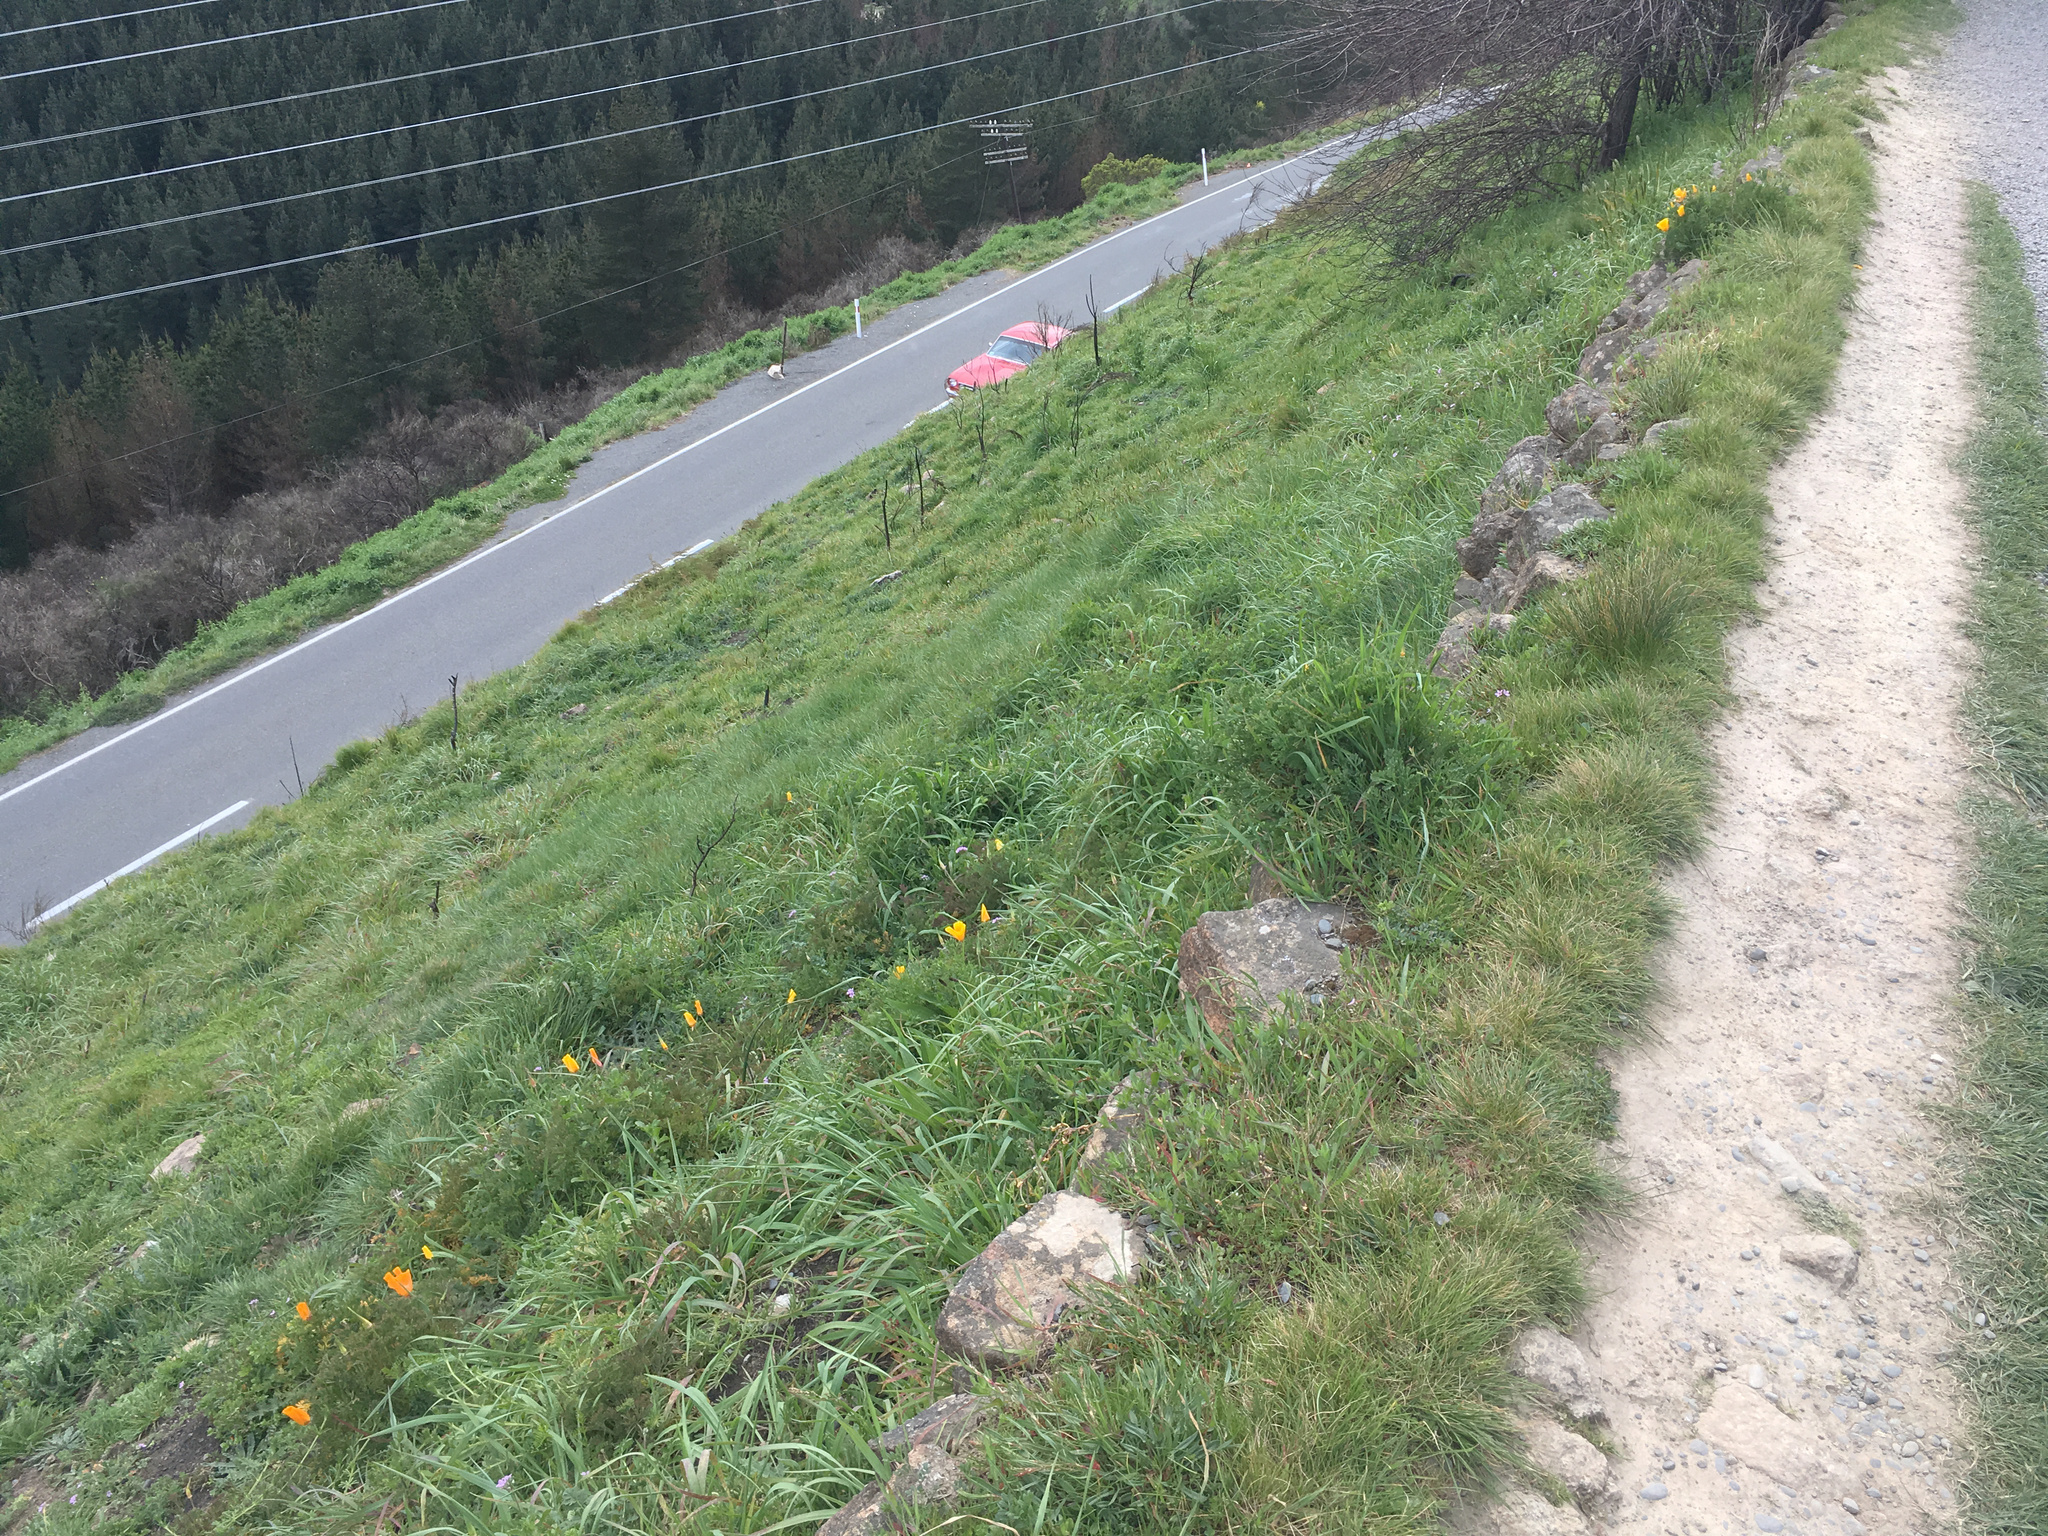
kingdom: Plantae
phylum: Tracheophyta
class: Magnoliopsida
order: Ranunculales
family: Papaveraceae
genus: Eschscholzia
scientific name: Eschscholzia californica
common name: California poppy
